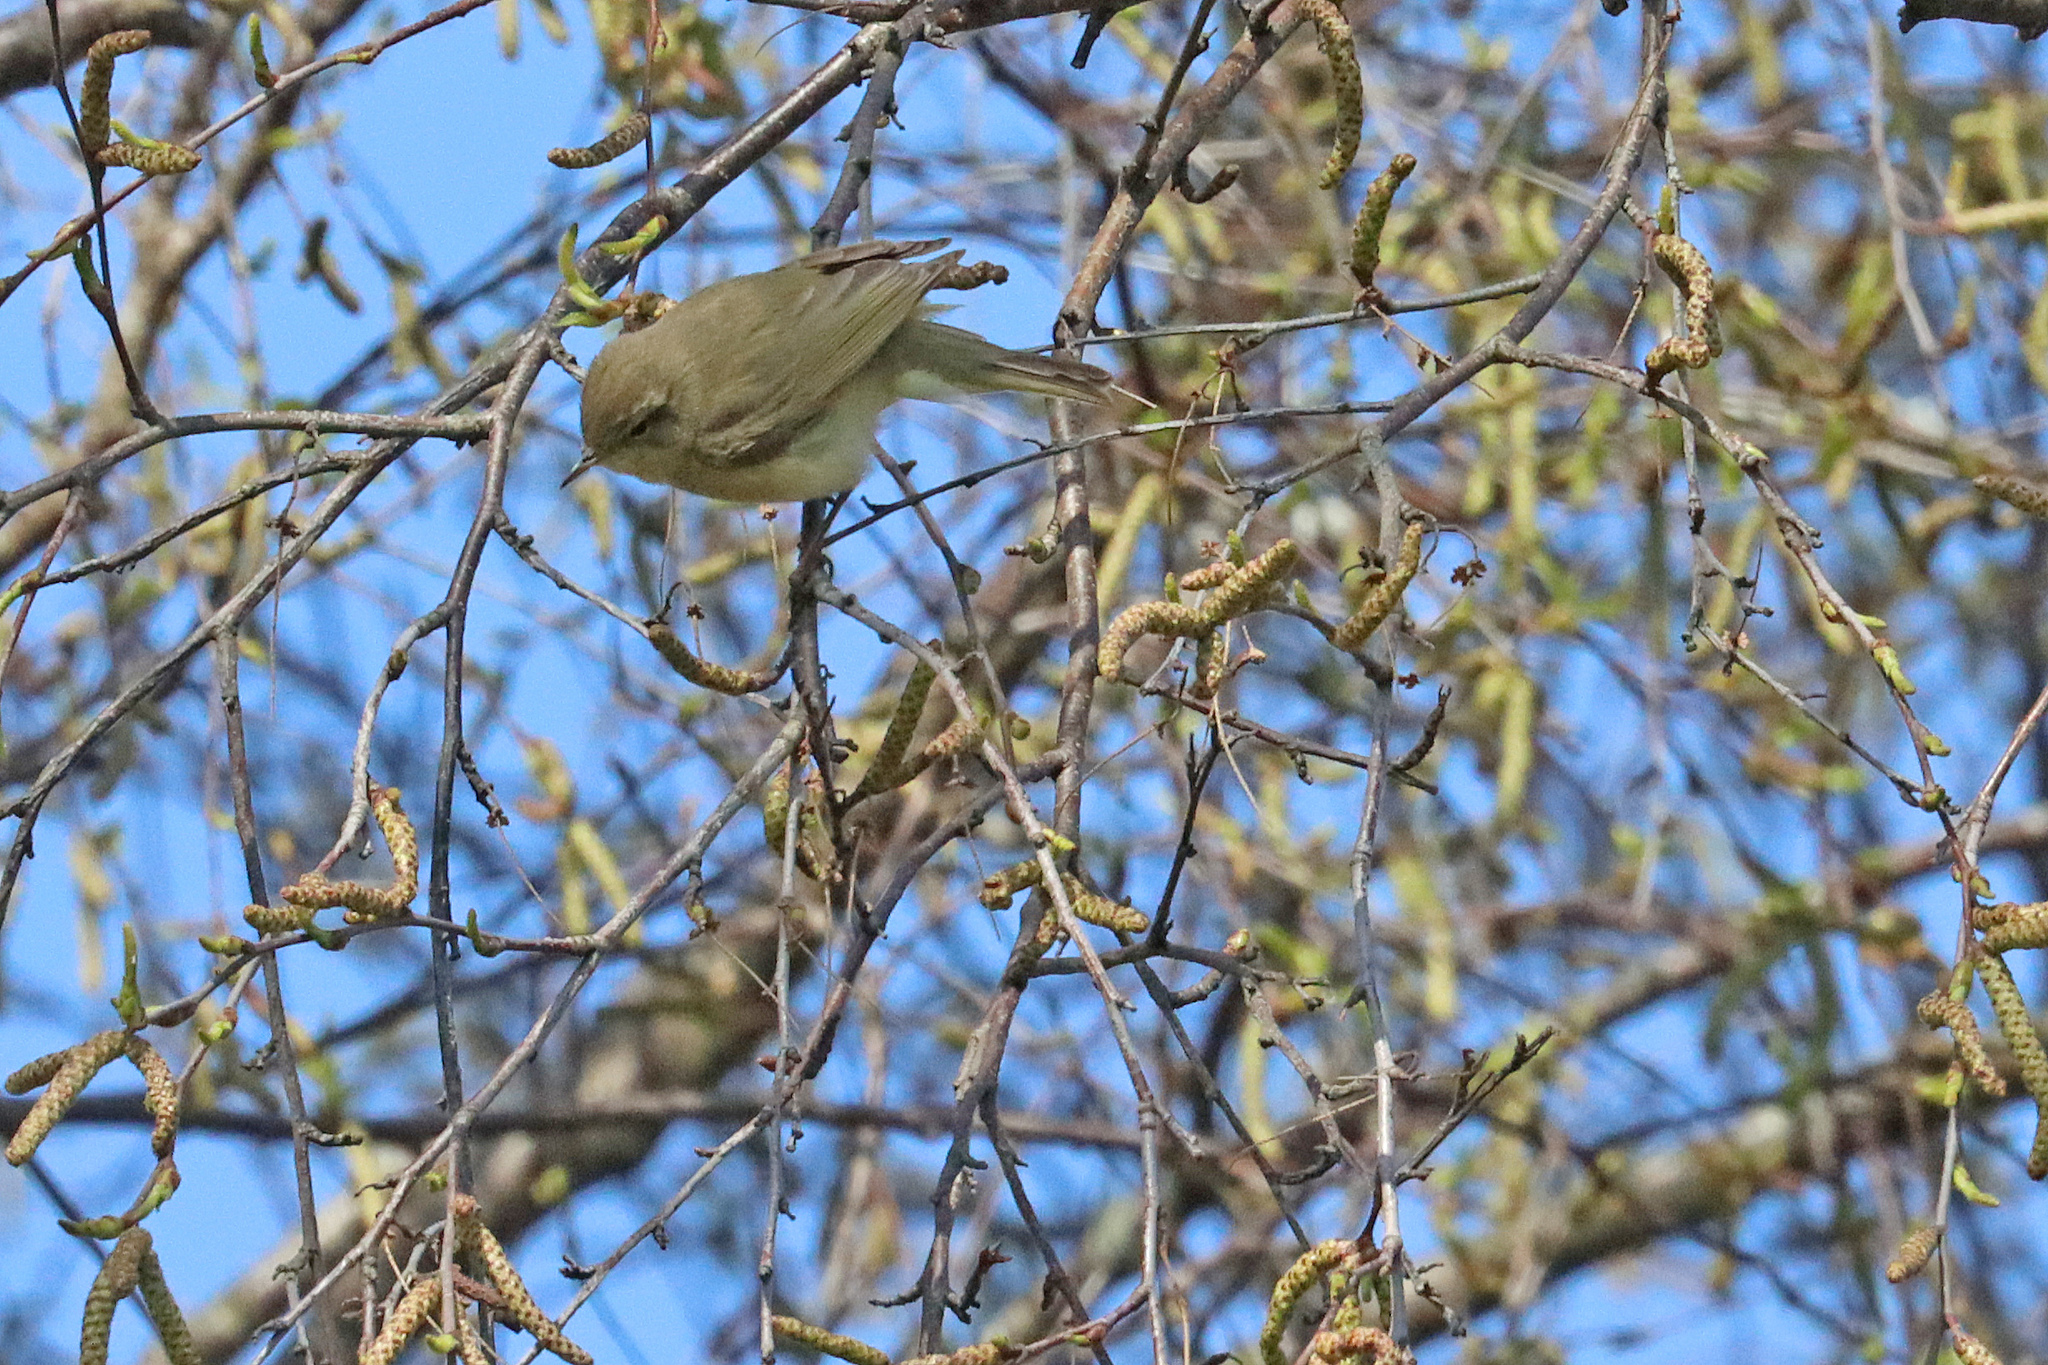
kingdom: Animalia
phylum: Chordata
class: Aves
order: Passeriformes
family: Phylloscopidae
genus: Phylloscopus
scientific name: Phylloscopus collybita
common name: Common chiffchaff
